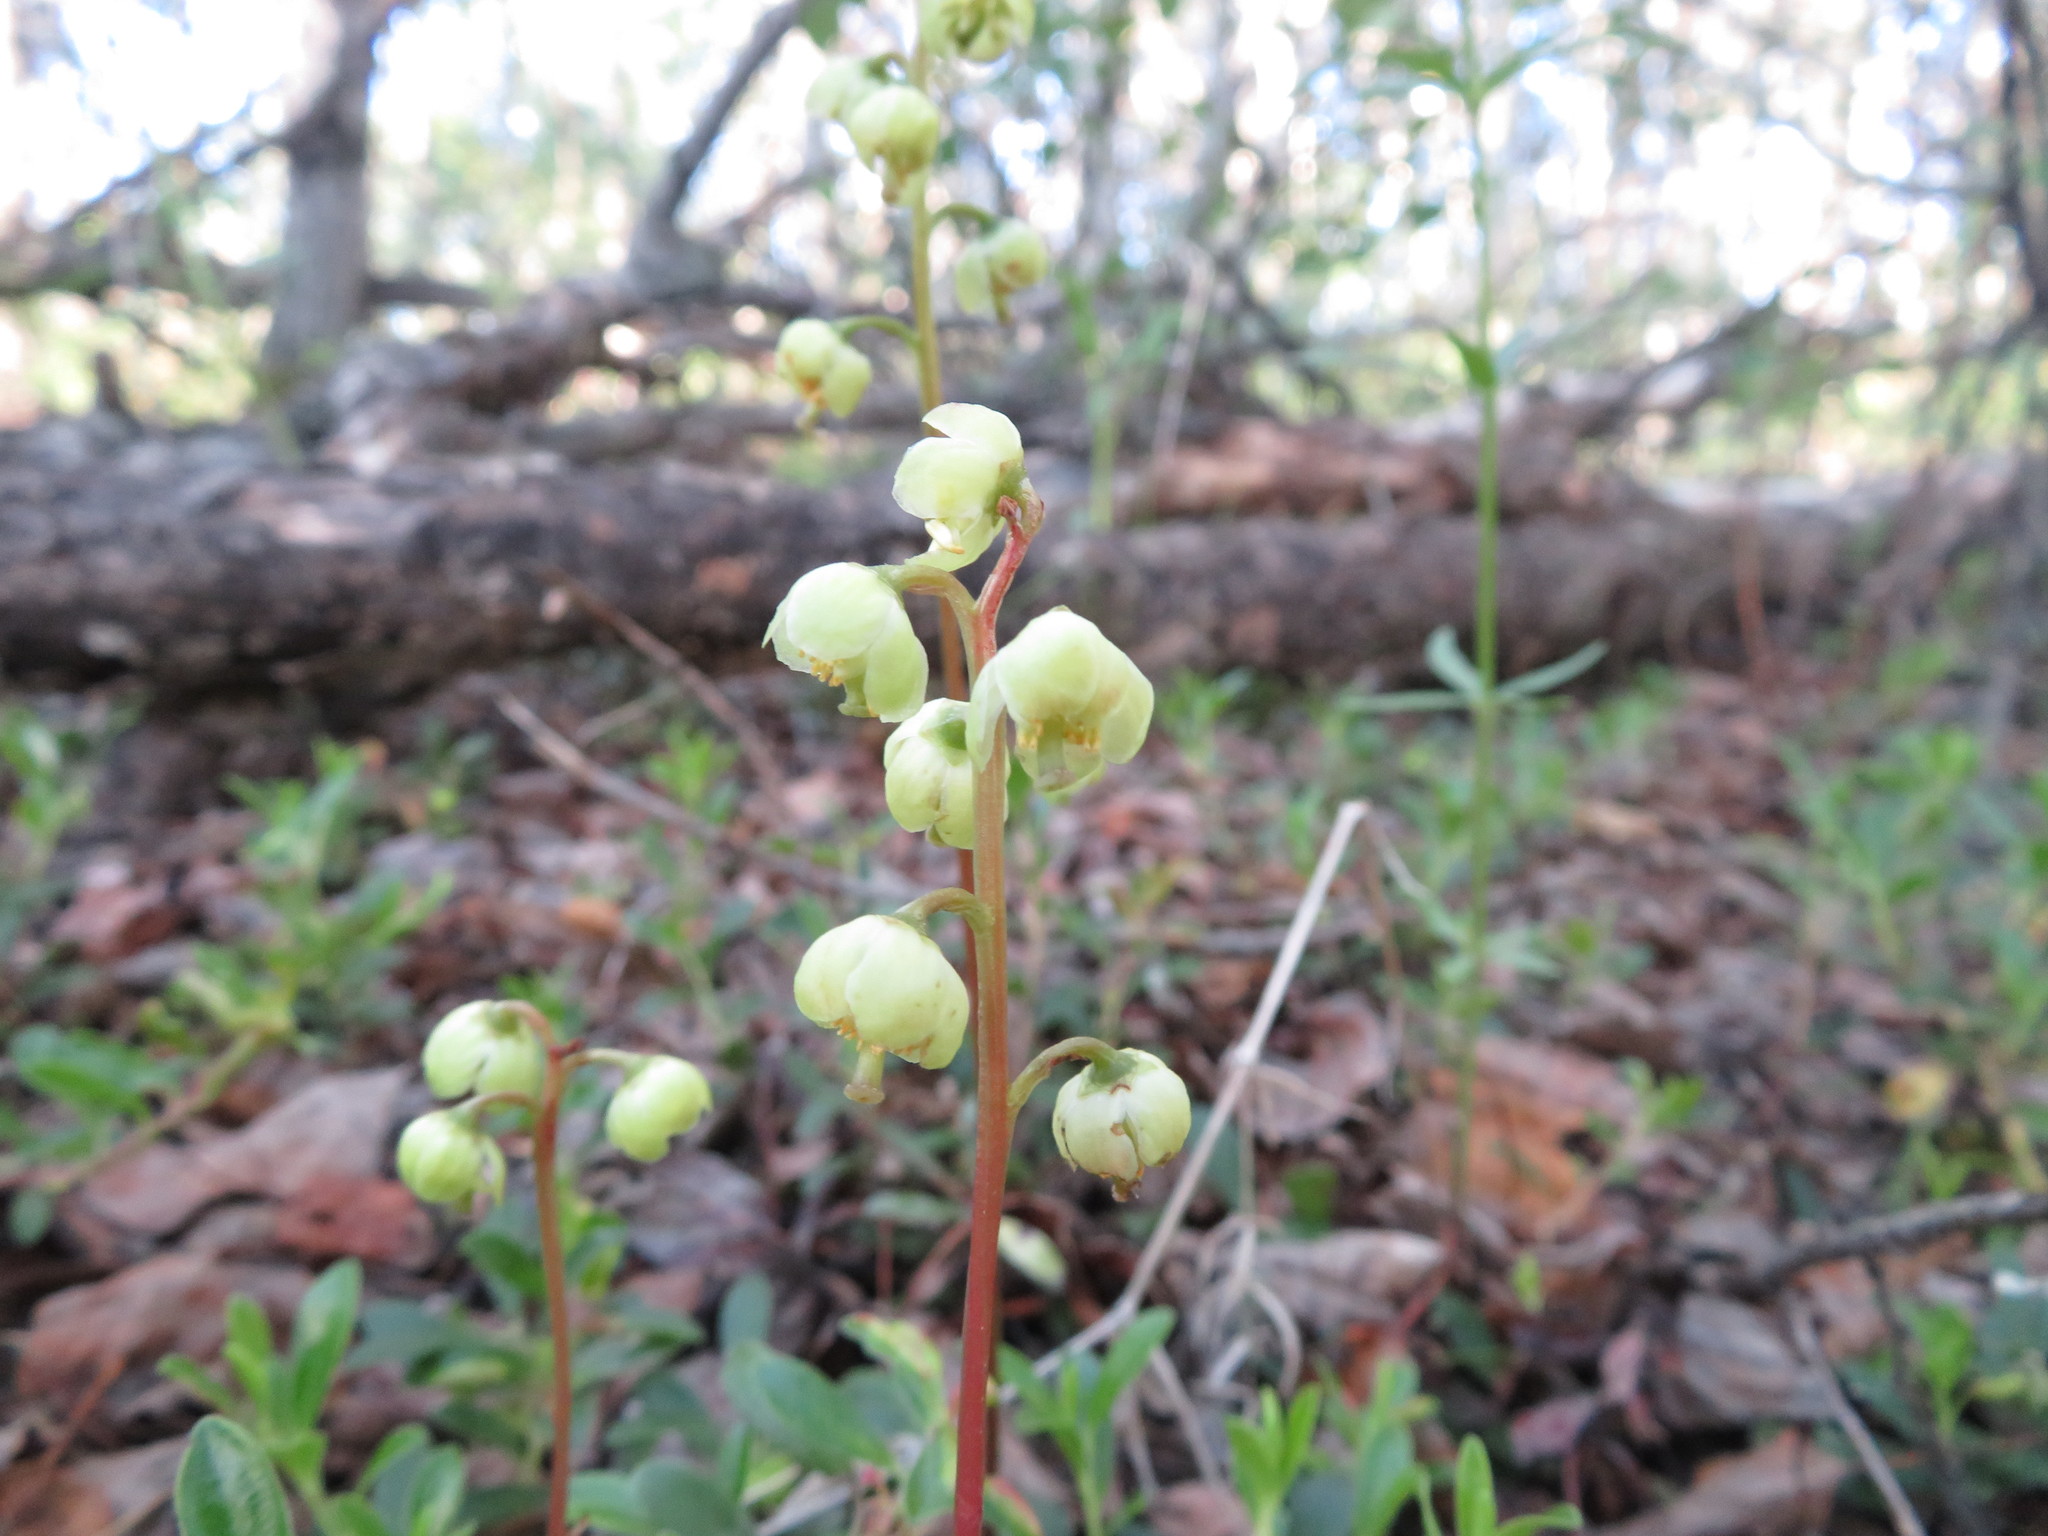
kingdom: Plantae
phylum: Tracheophyta
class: Magnoliopsida
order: Ericales
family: Ericaceae
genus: Pyrola
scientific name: Pyrola chlorantha
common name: Green wintergreen
